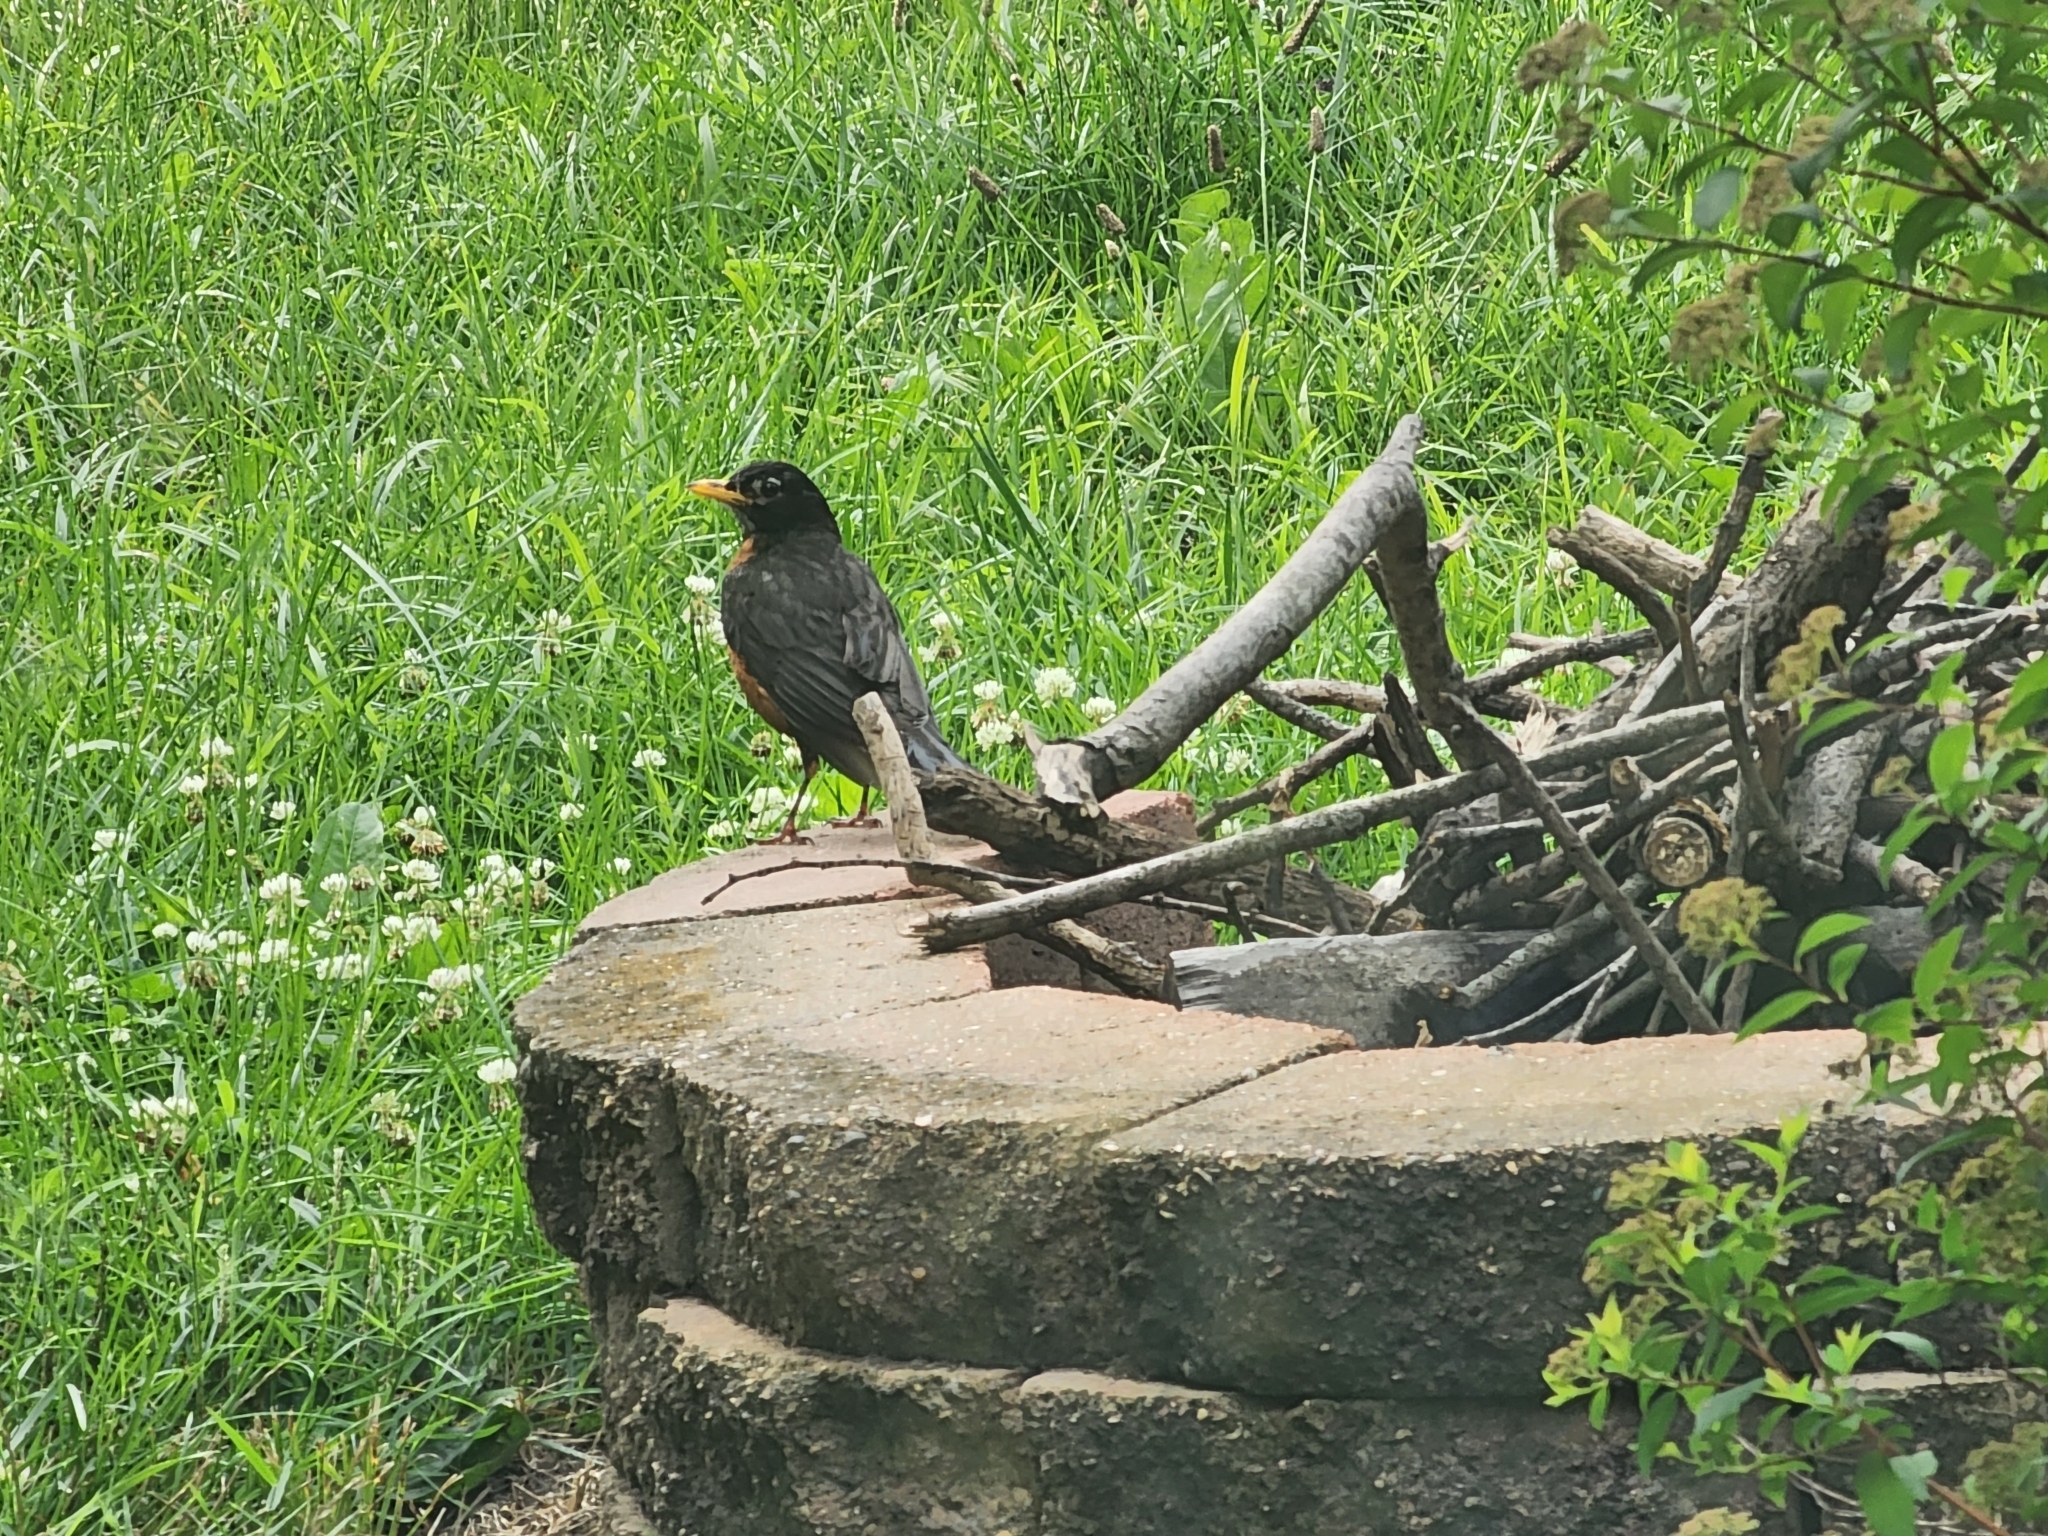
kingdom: Animalia
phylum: Chordata
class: Aves
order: Passeriformes
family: Turdidae
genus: Turdus
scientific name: Turdus migratorius
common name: American robin
